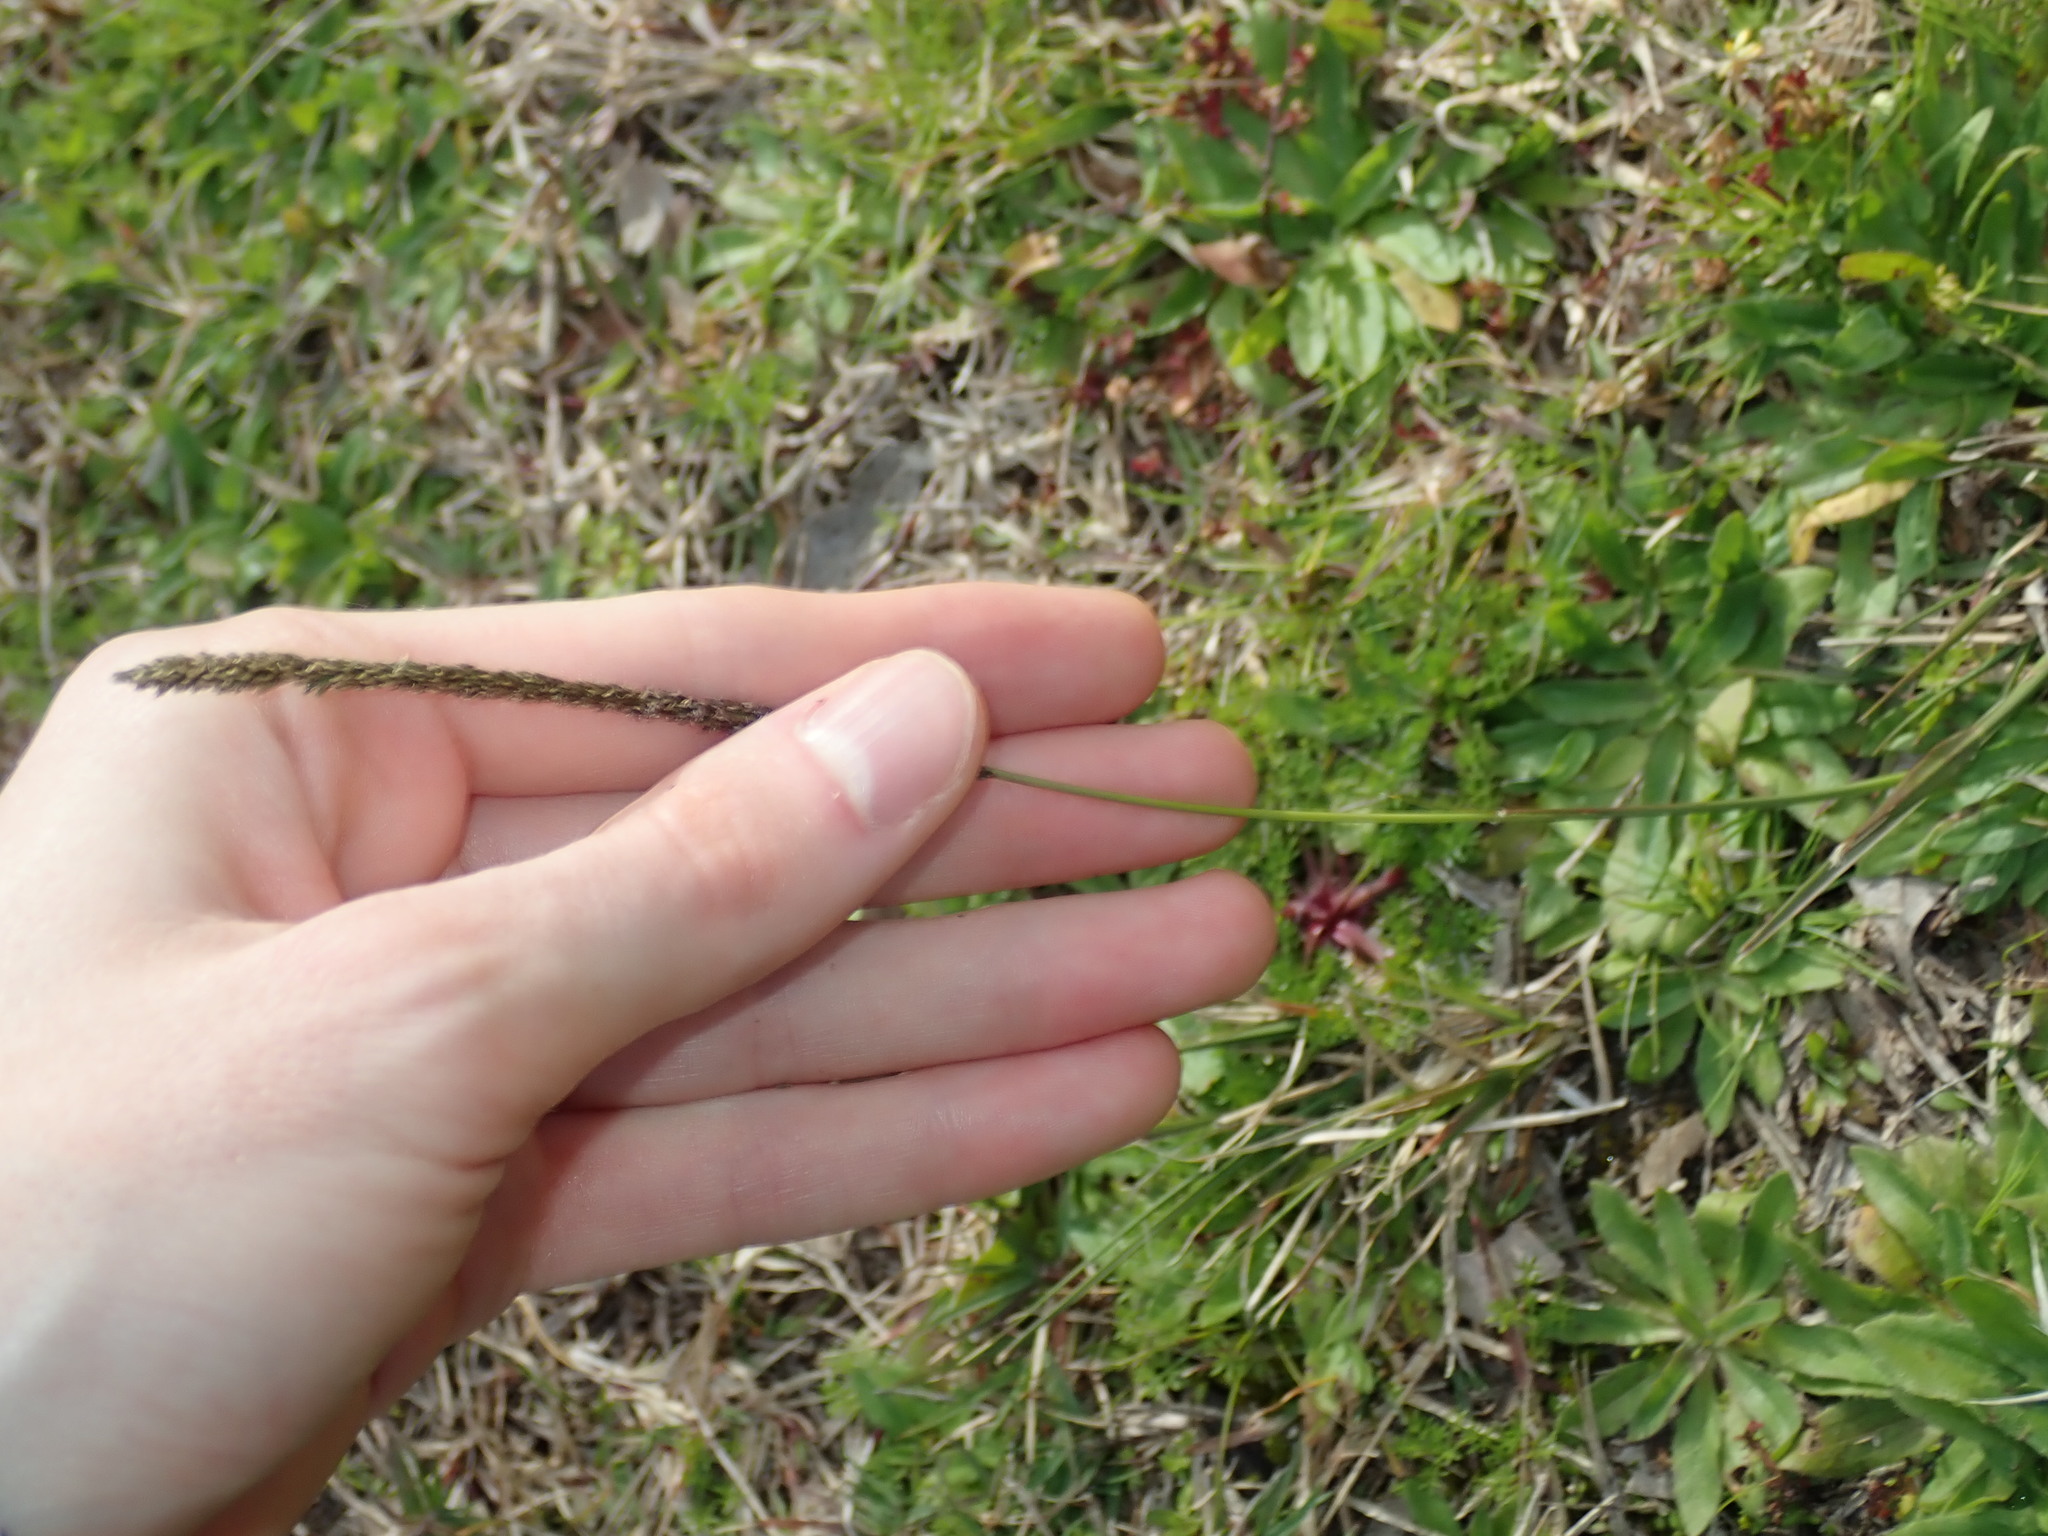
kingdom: Plantae
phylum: Tracheophyta
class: Liliopsida
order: Poales
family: Poaceae
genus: Sporobolus
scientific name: Sporobolus africanus
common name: African dropseed
